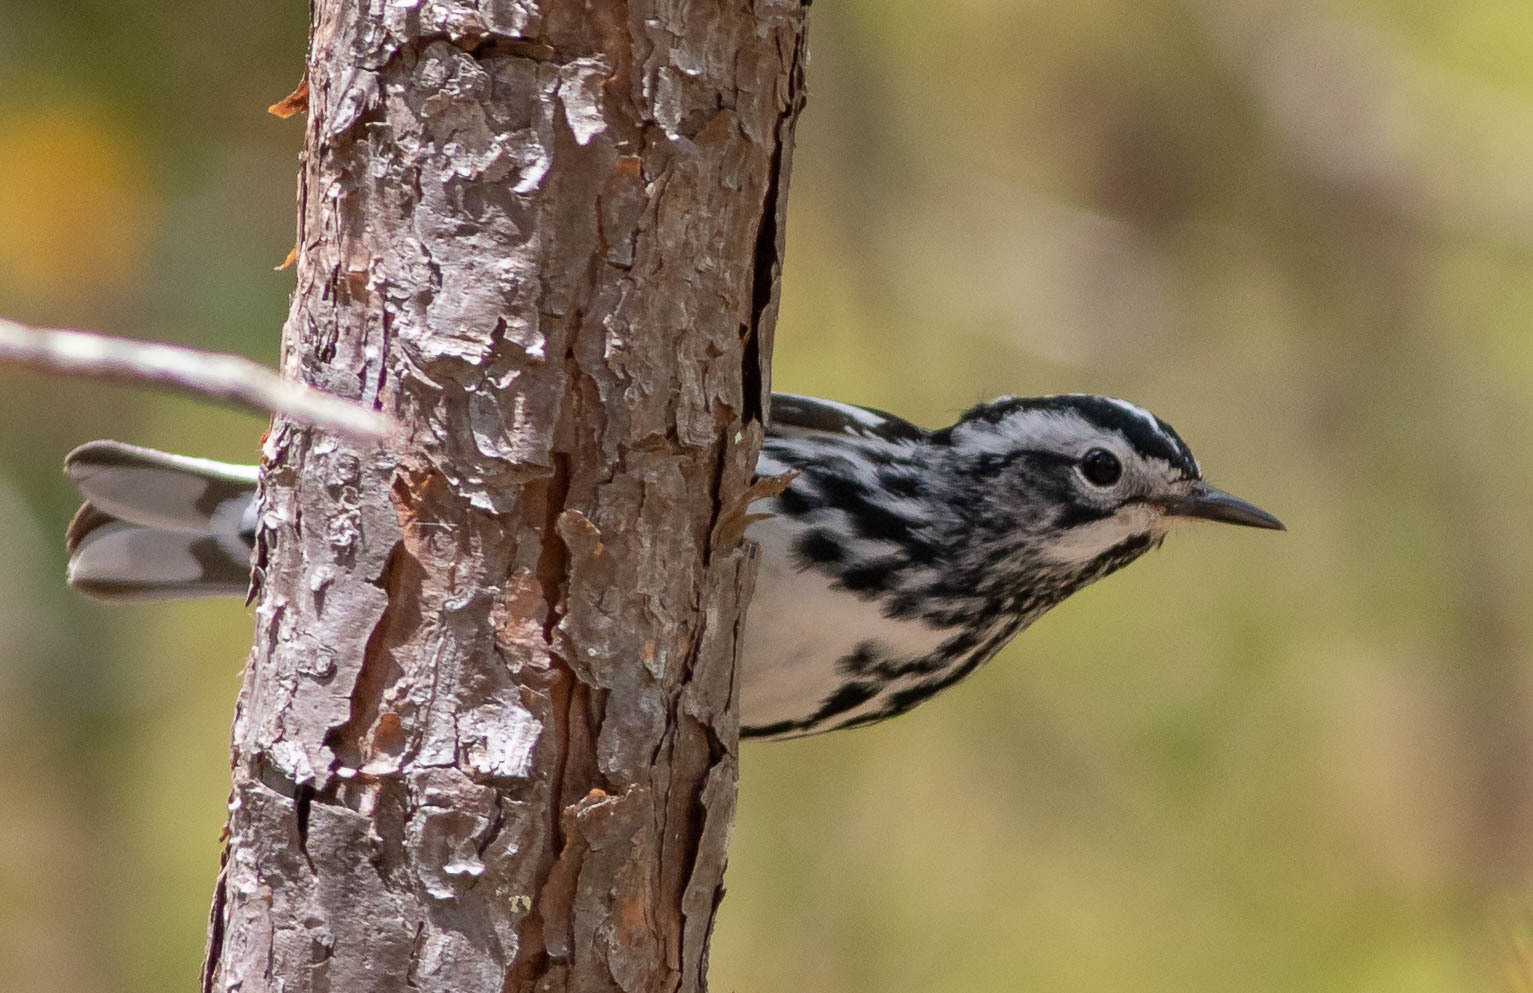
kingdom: Animalia
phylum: Chordata
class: Aves
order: Passeriformes
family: Parulidae
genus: Mniotilta
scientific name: Mniotilta varia
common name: Black-and-white warbler
